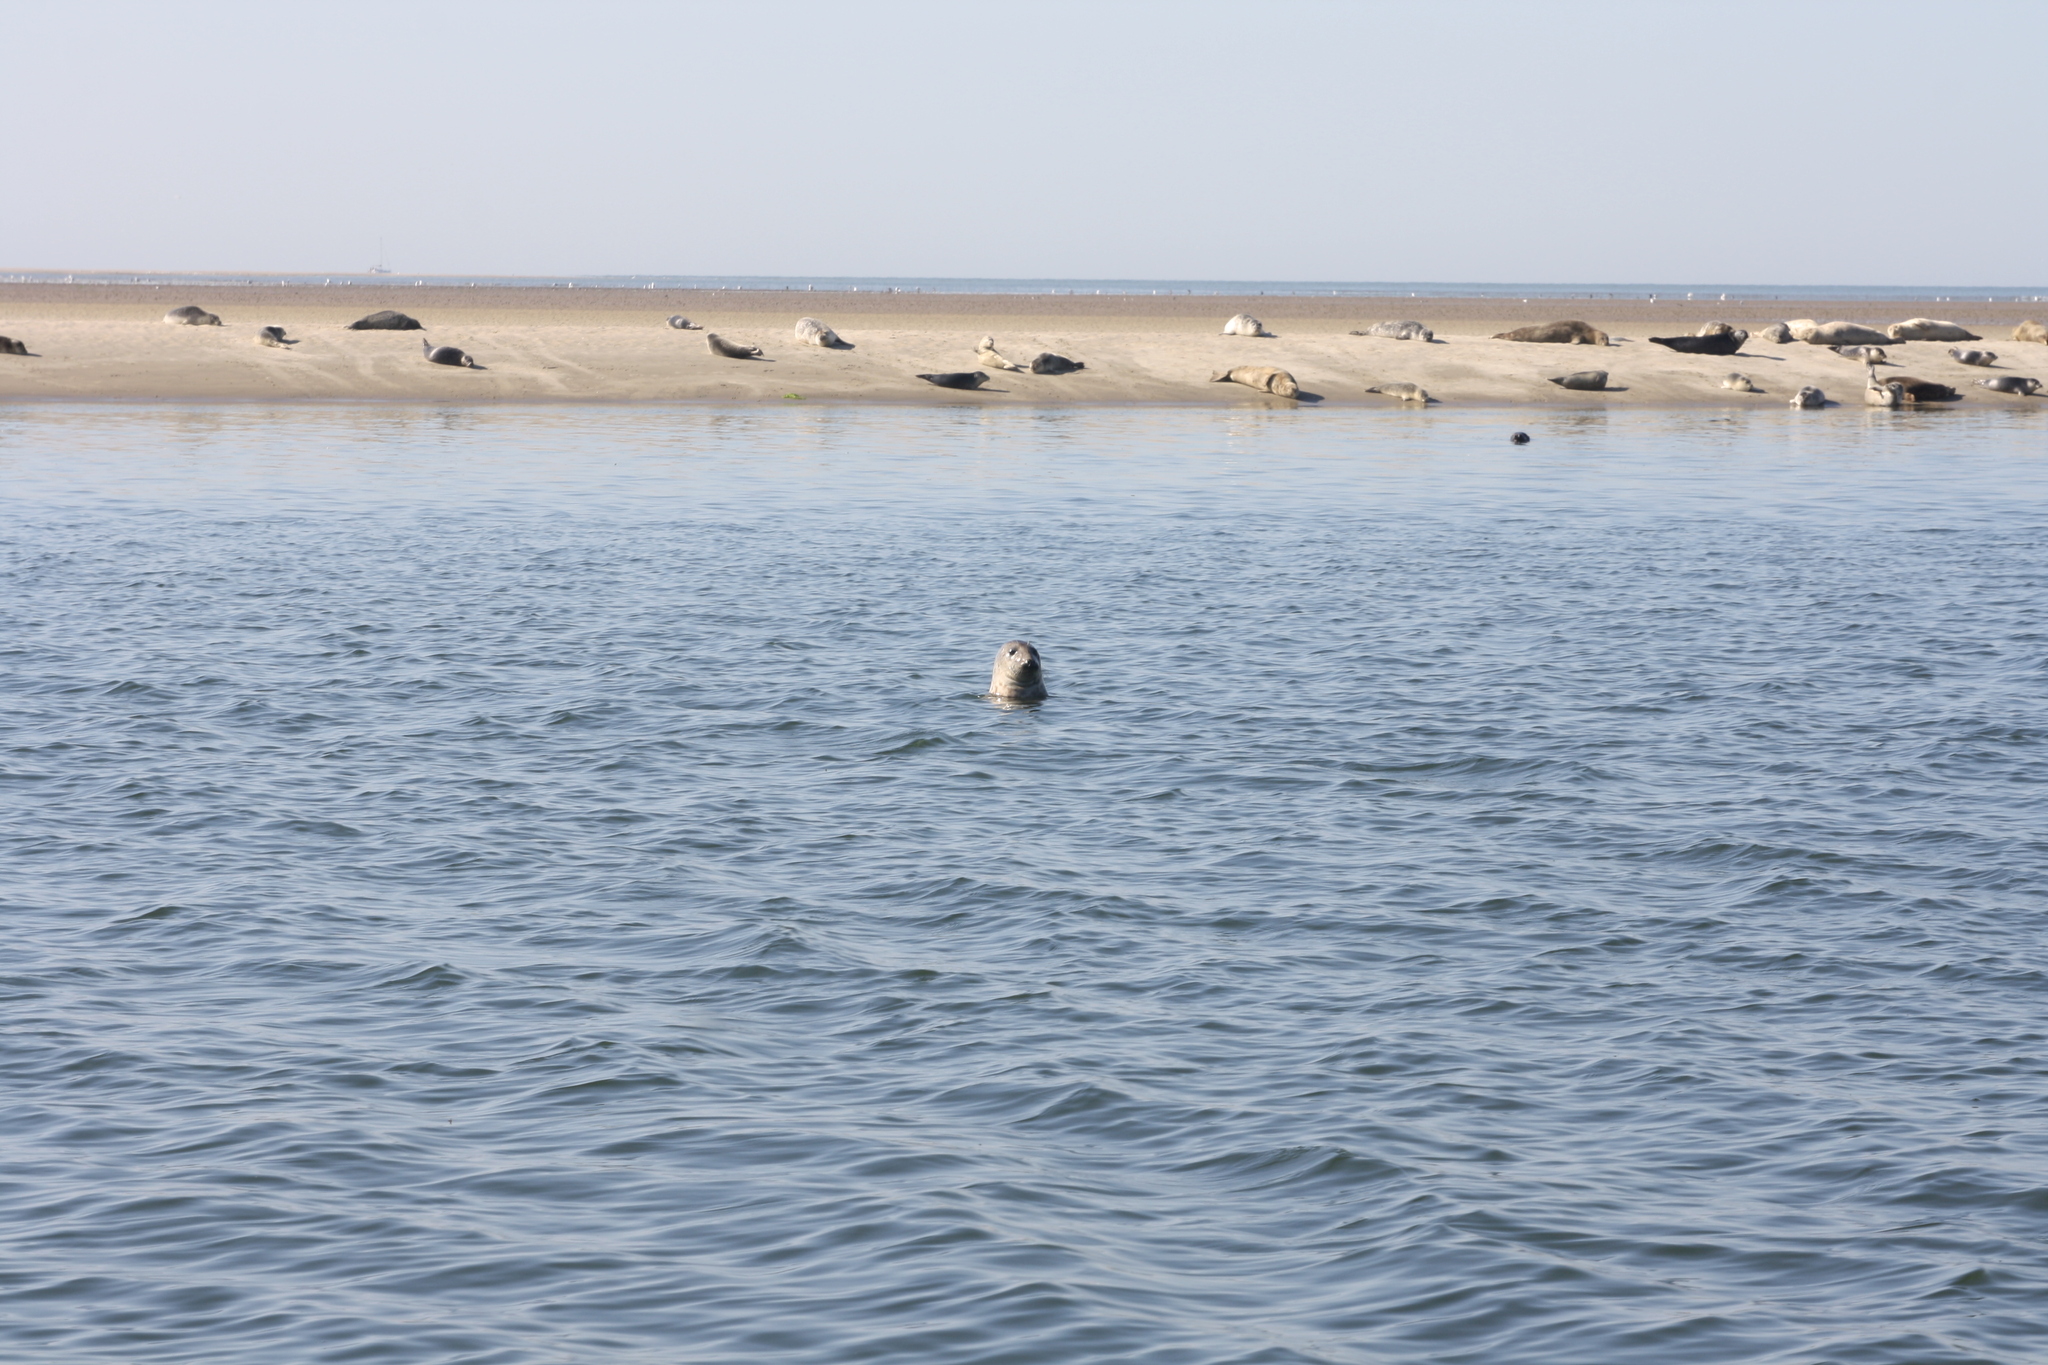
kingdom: Animalia
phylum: Chordata
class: Mammalia
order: Carnivora
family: Phocidae
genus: Halichoerus
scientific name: Halichoerus grypus
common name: Grey seal
